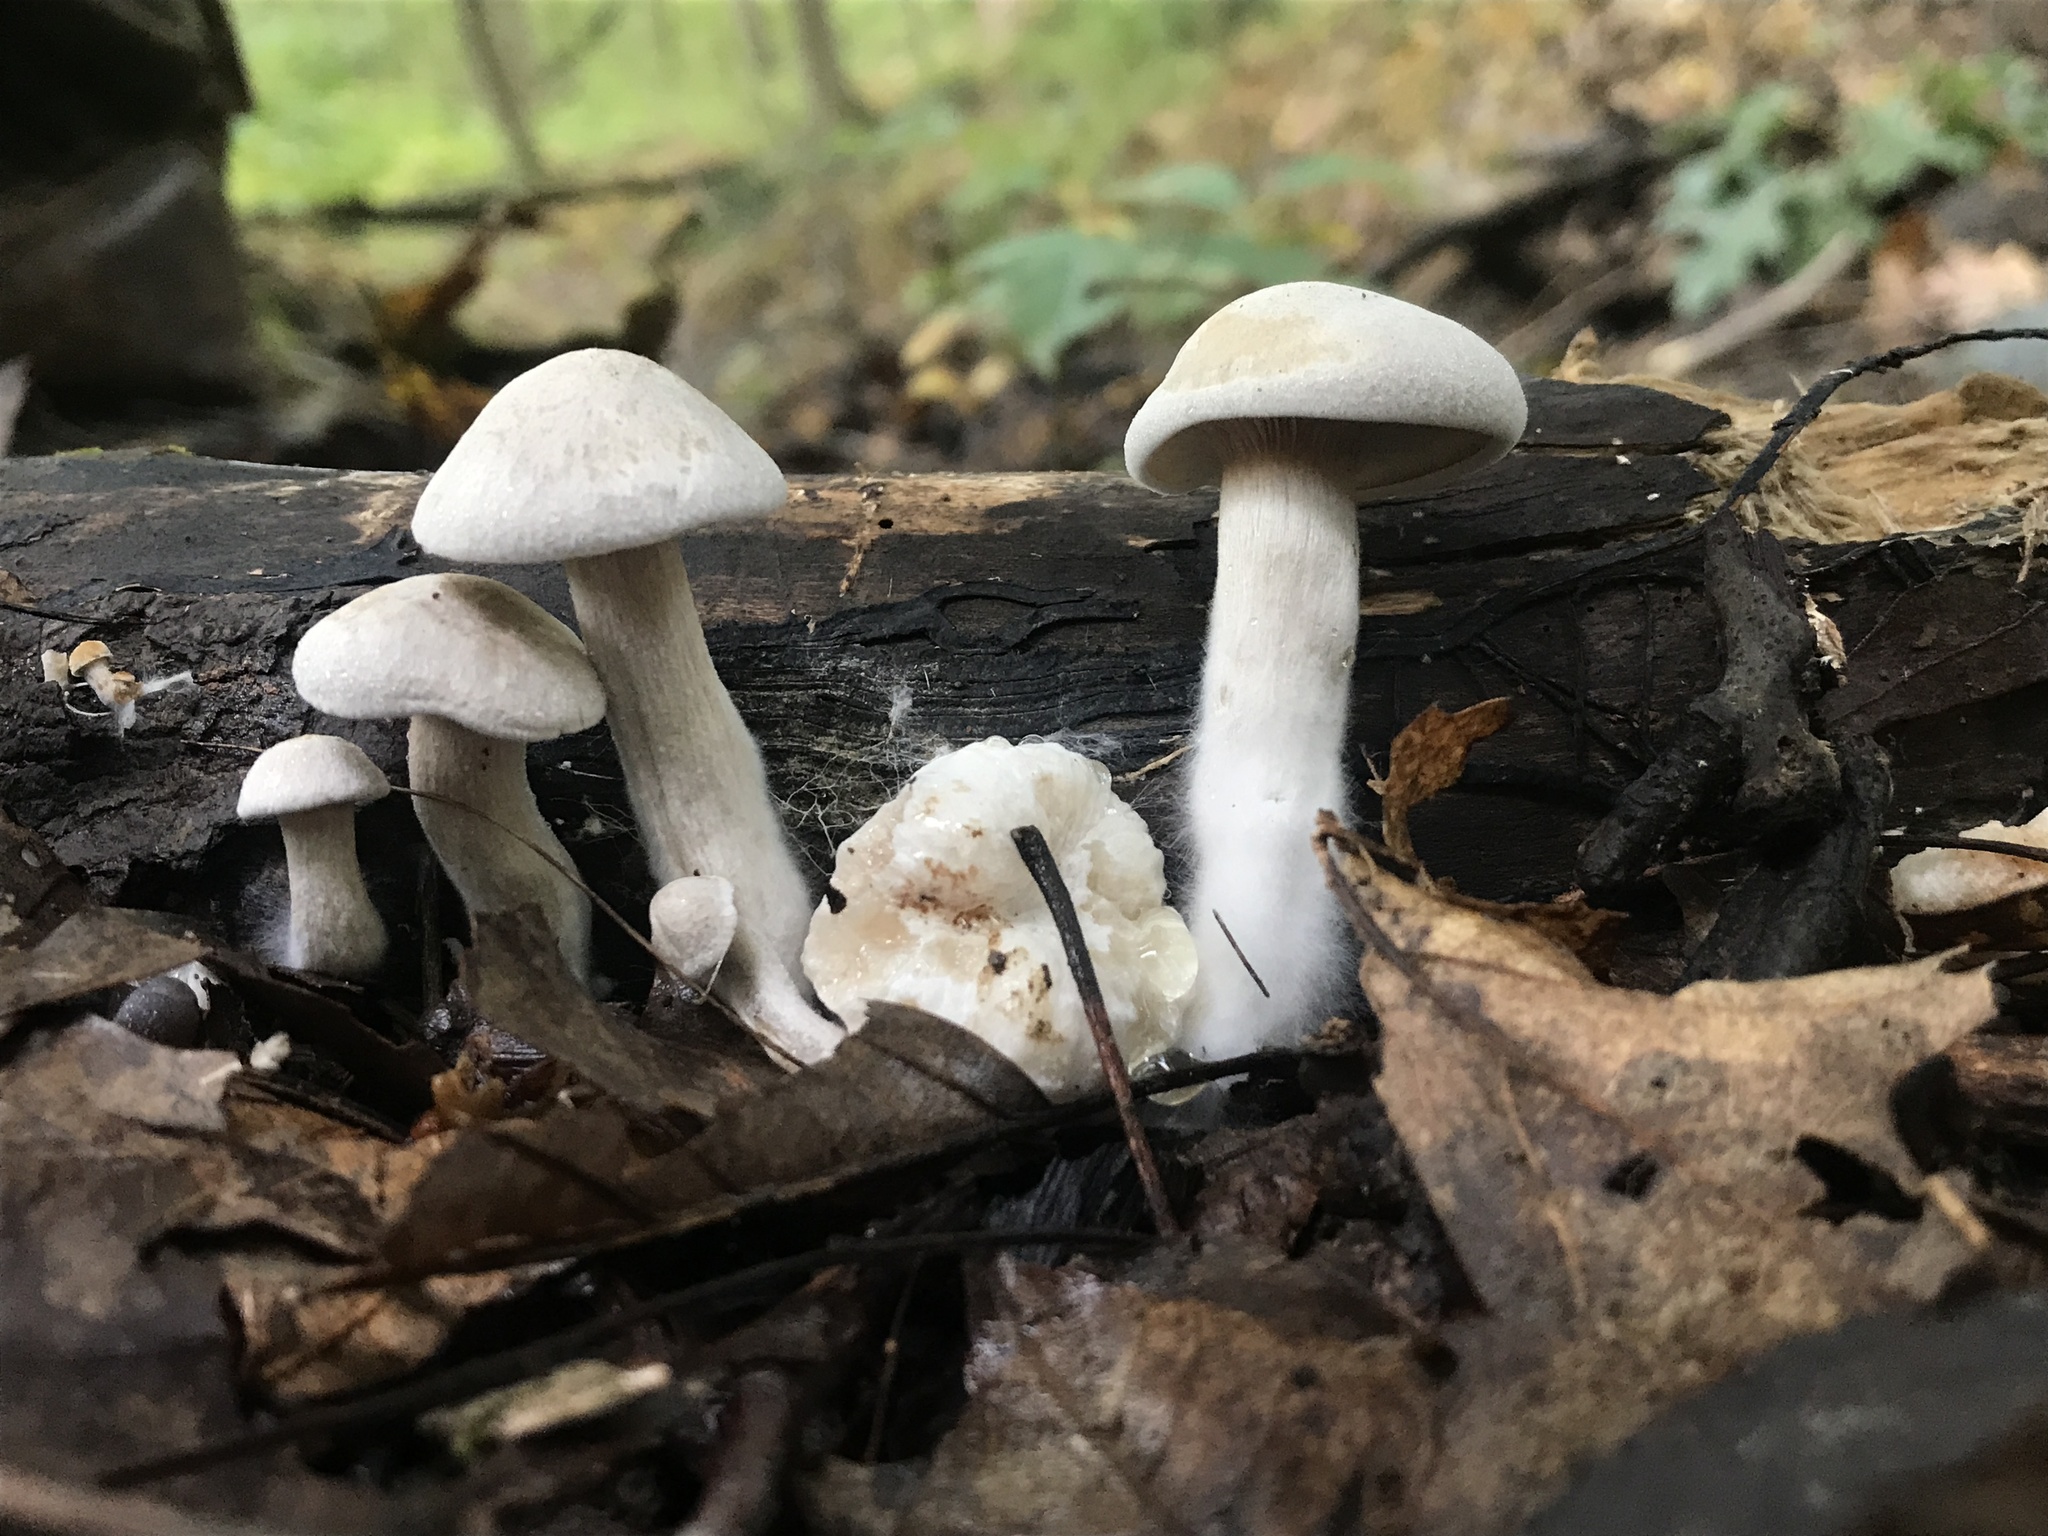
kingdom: Fungi
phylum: Basidiomycota
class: Agaricomycetes
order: Agaricales
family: Entolomataceae
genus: Entoloma
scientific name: Entoloma abortivum
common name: Aborted entoloma
